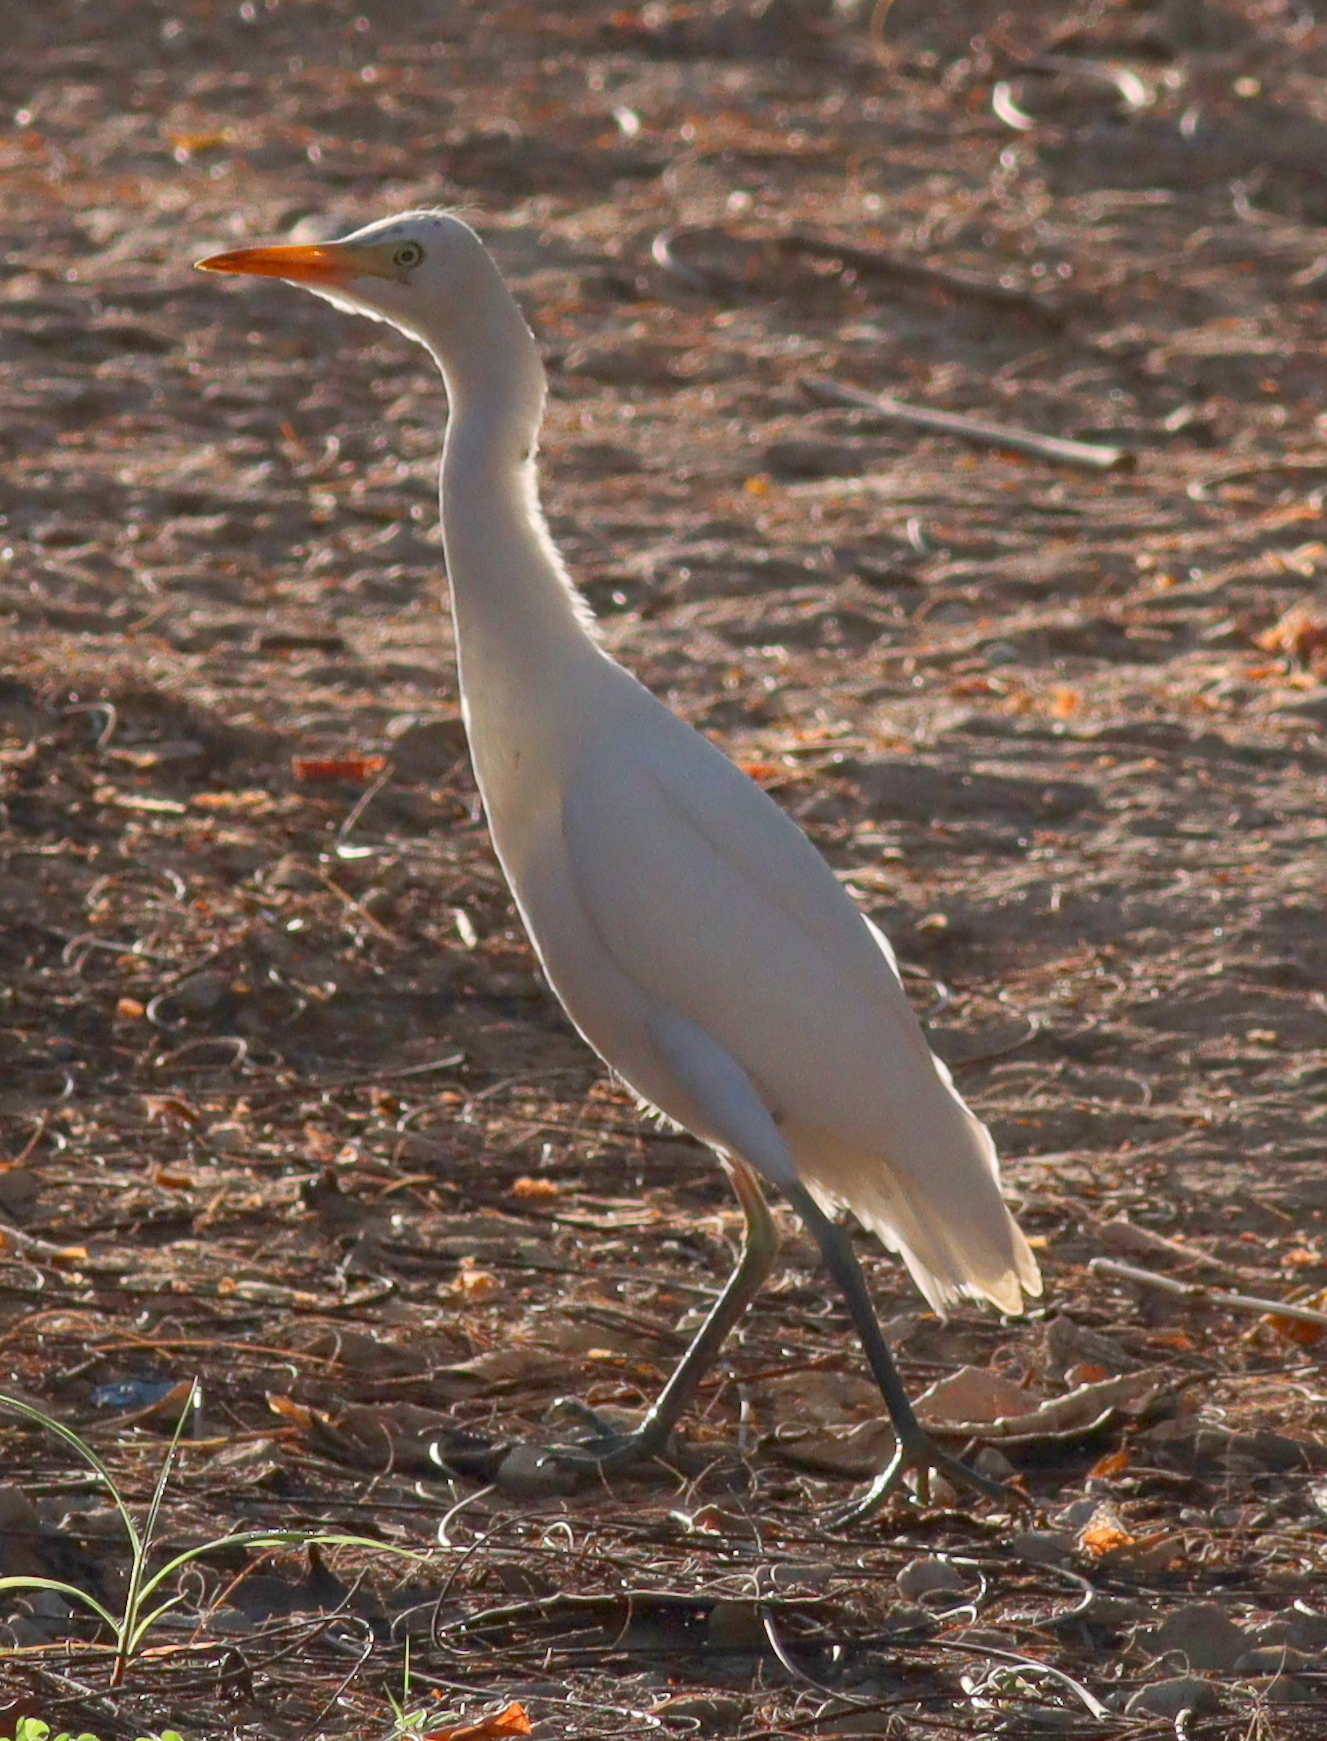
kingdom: Animalia
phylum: Chordata
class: Aves
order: Pelecaniformes
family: Ardeidae
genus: Bubulcus
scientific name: Bubulcus ibis
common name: Cattle egret
